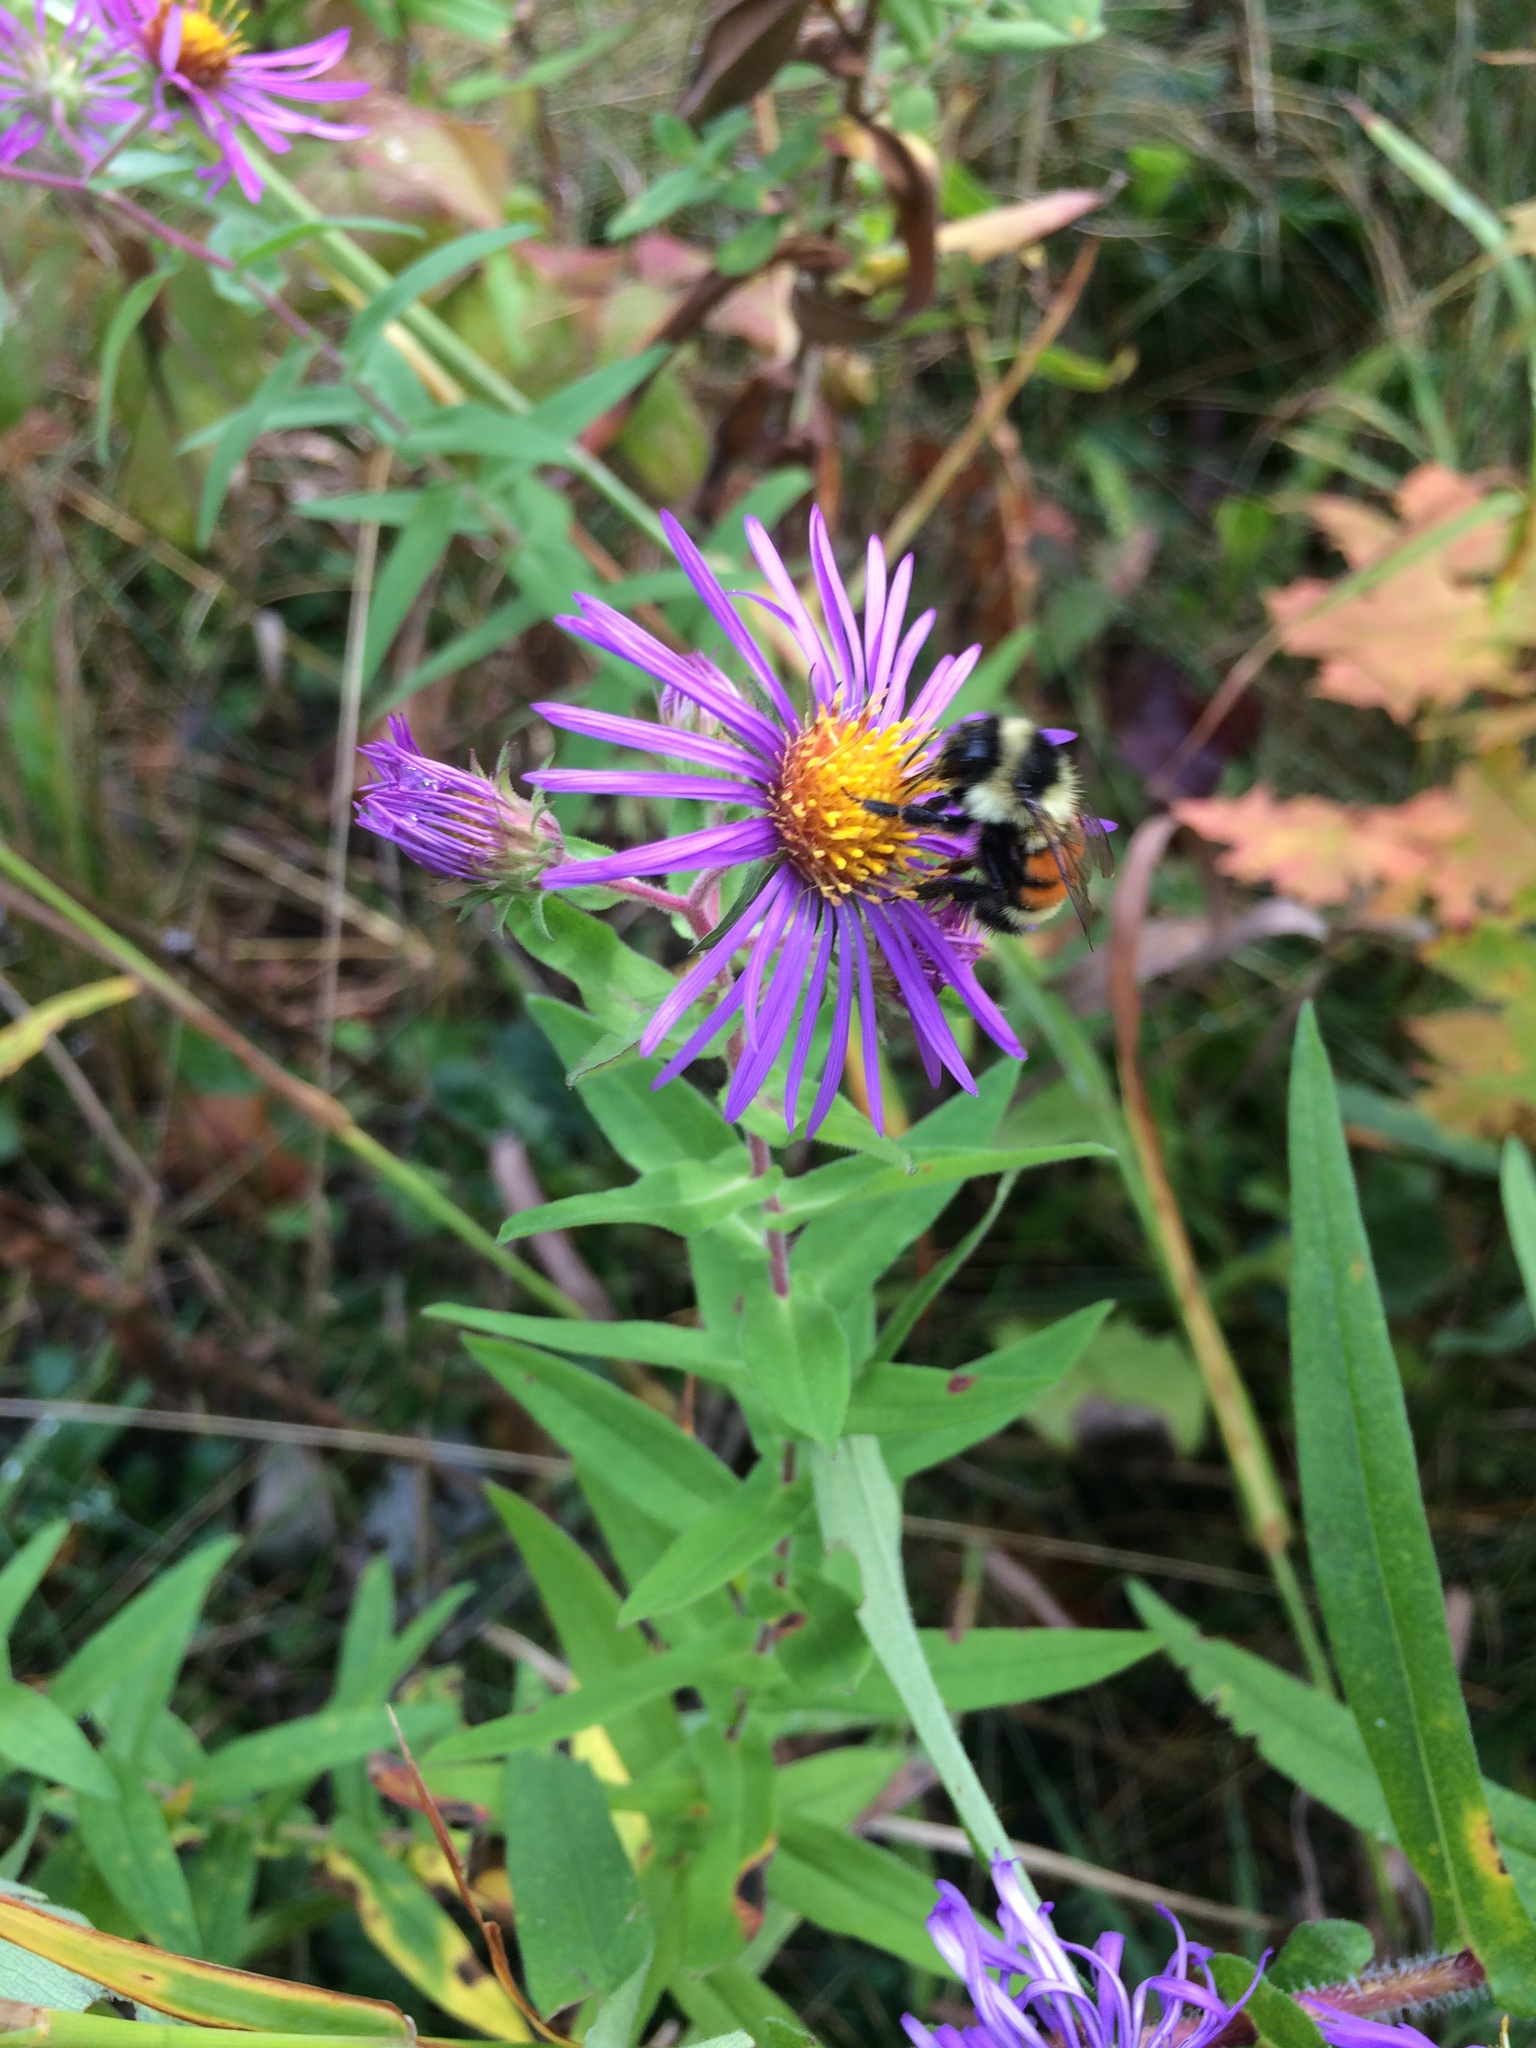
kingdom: Plantae
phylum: Tracheophyta
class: Magnoliopsida
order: Asterales
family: Asteraceae
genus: Symphyotrichum
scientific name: Symphyotrichum novae-angliae
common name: Michaelmas daisy
